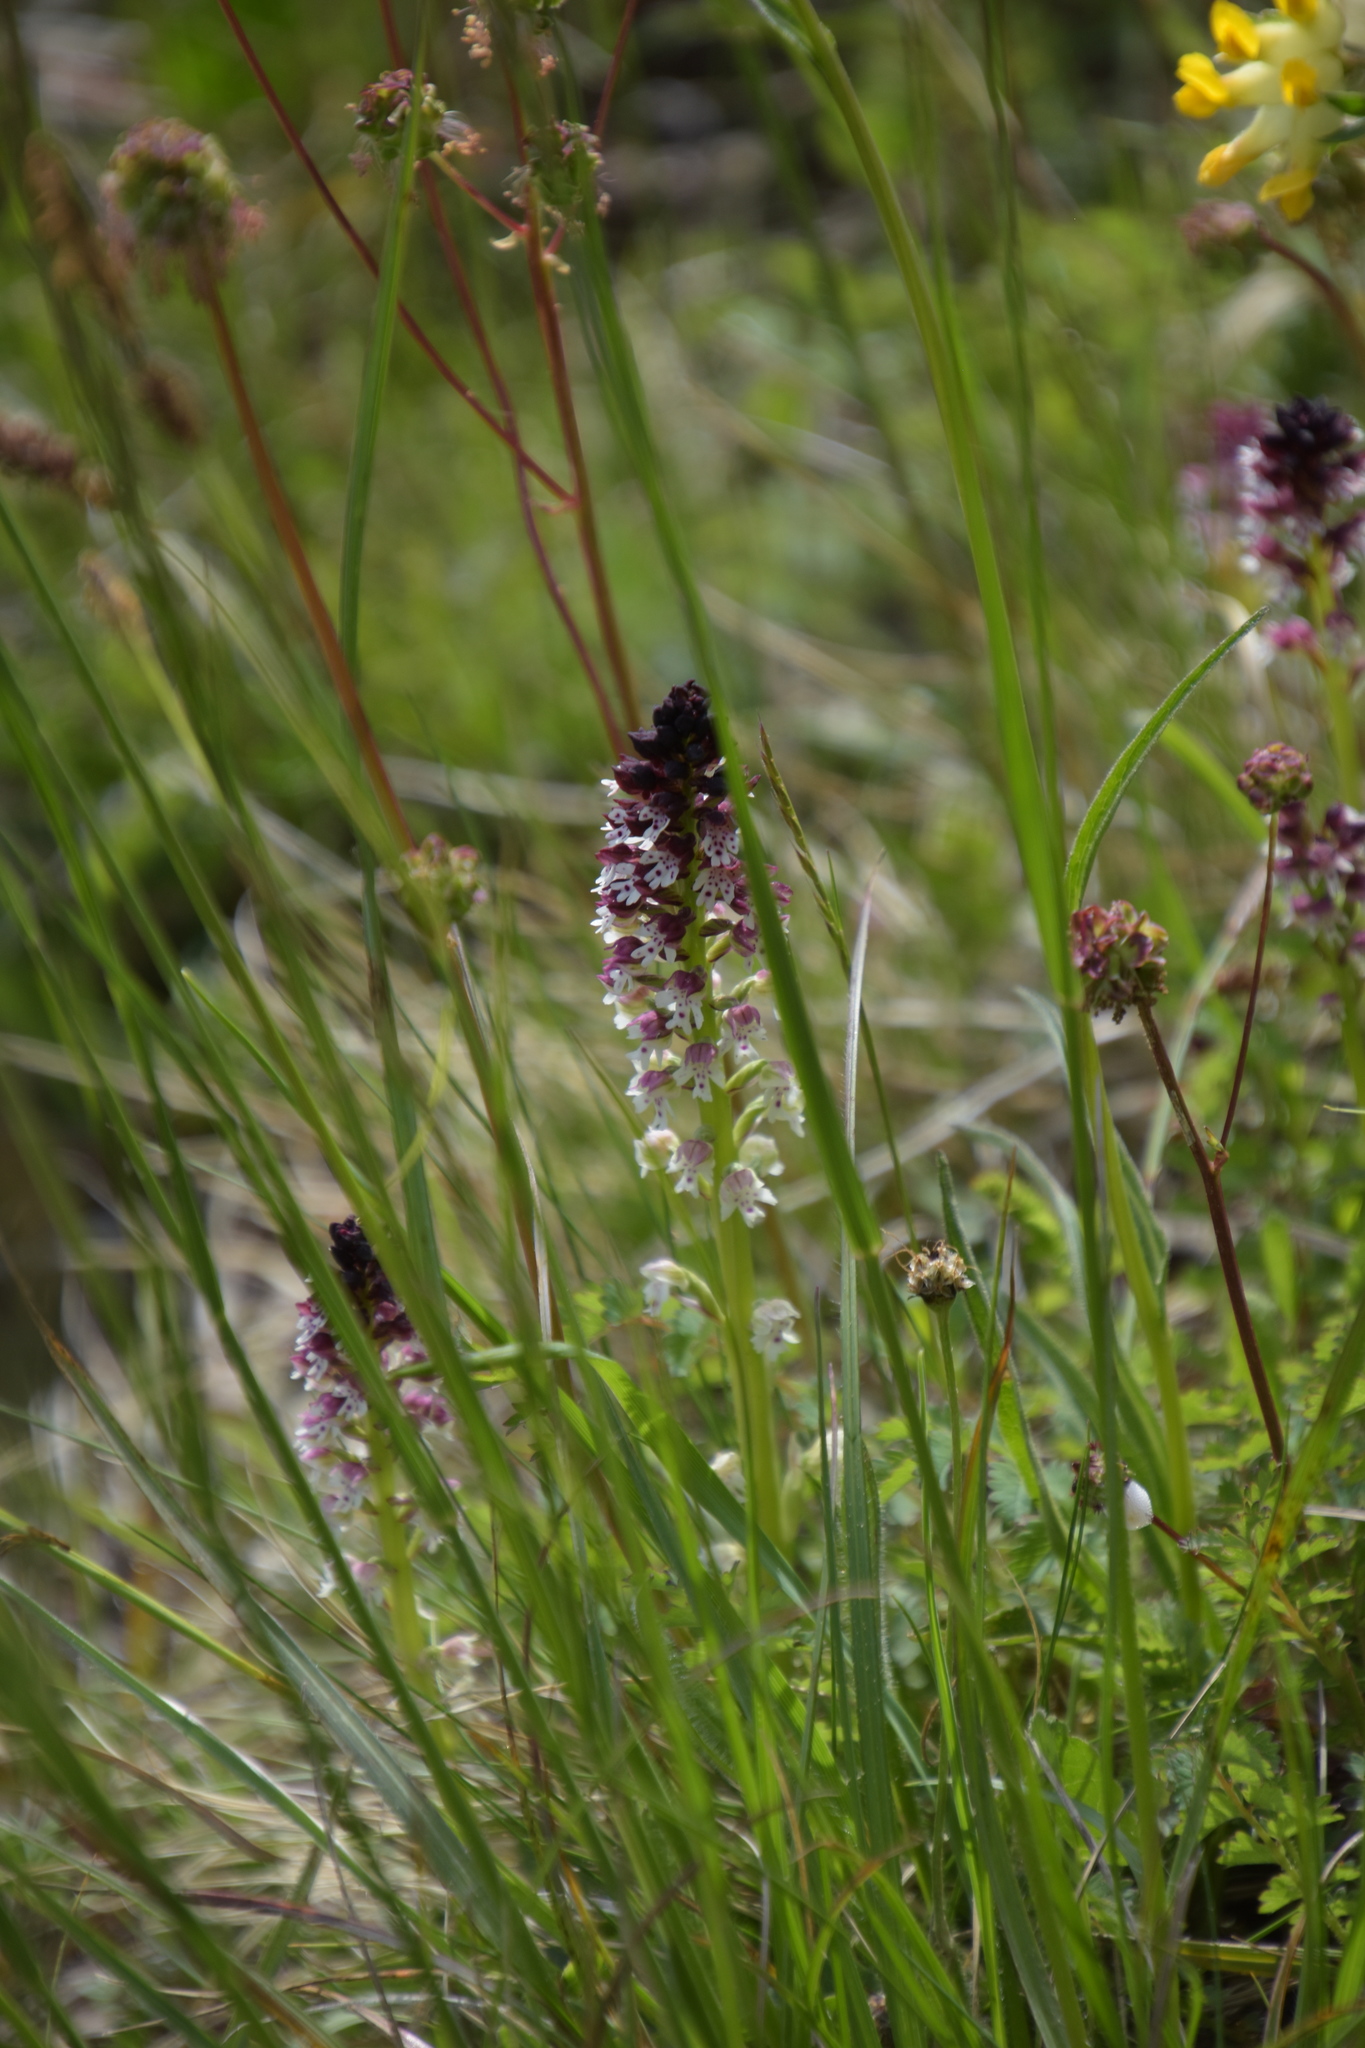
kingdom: Plantae
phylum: Tracheophyta
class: Liliopsida
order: Asparagales
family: Orchidaceae
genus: Neotinea
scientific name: Neotinea ustulata
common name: Burnt orchid
